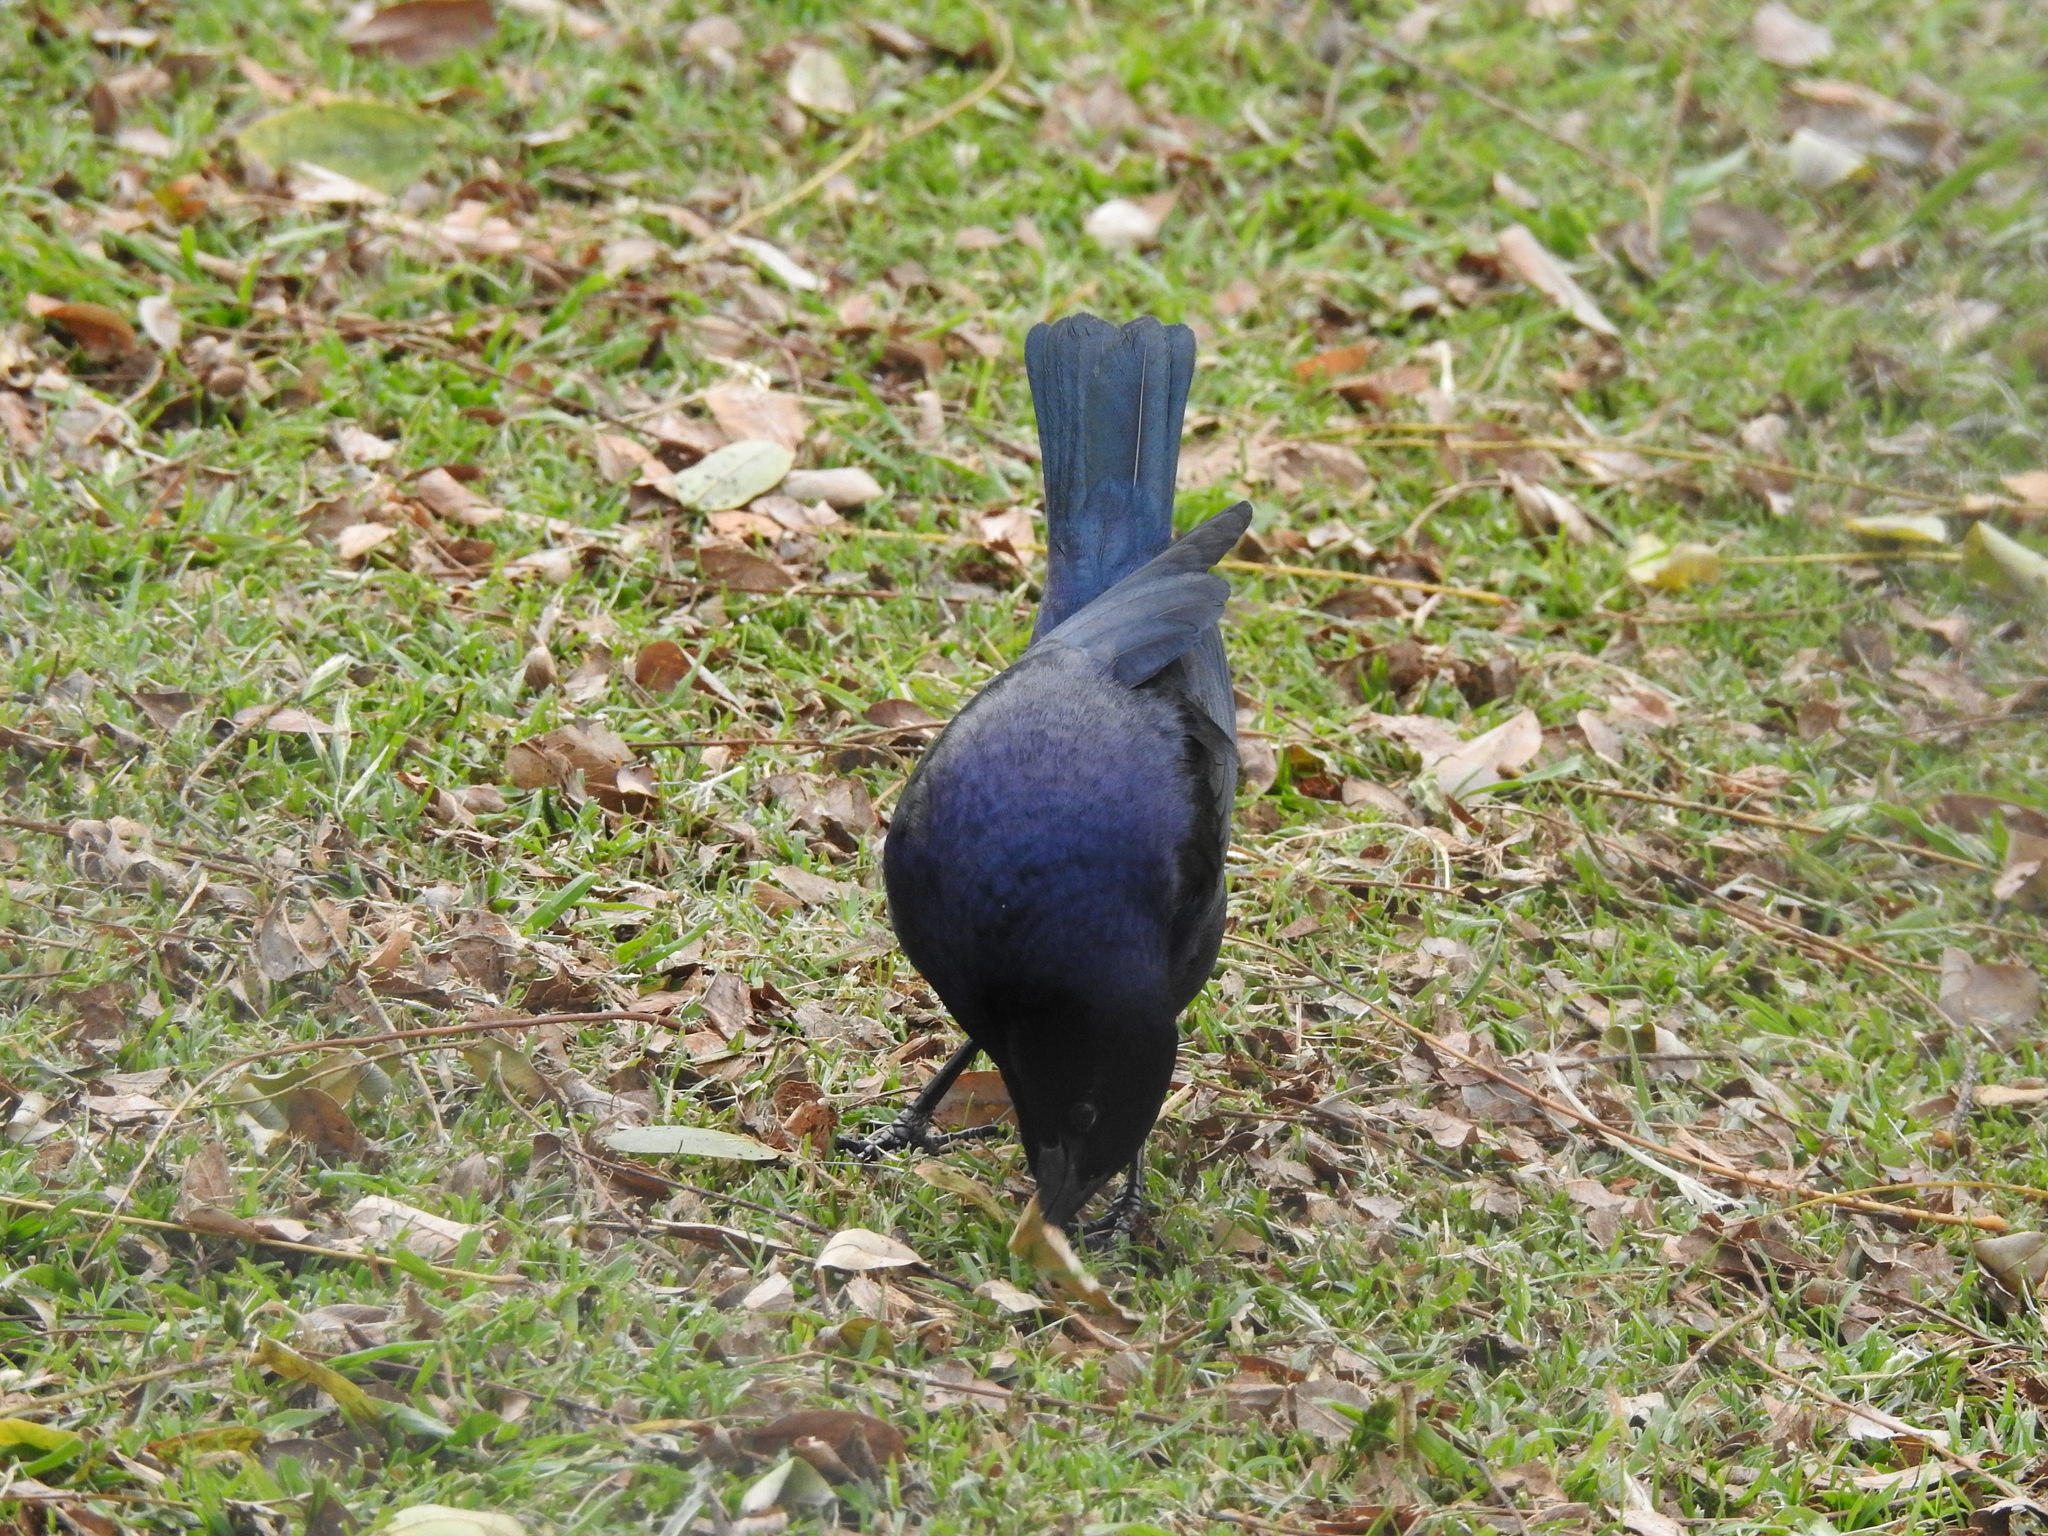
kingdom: Animalia
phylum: Chordata
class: Aves
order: Passeriformes
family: Icteridae
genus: Molothrus
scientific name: Molothrus bonariensis
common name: Shiny cowbird
